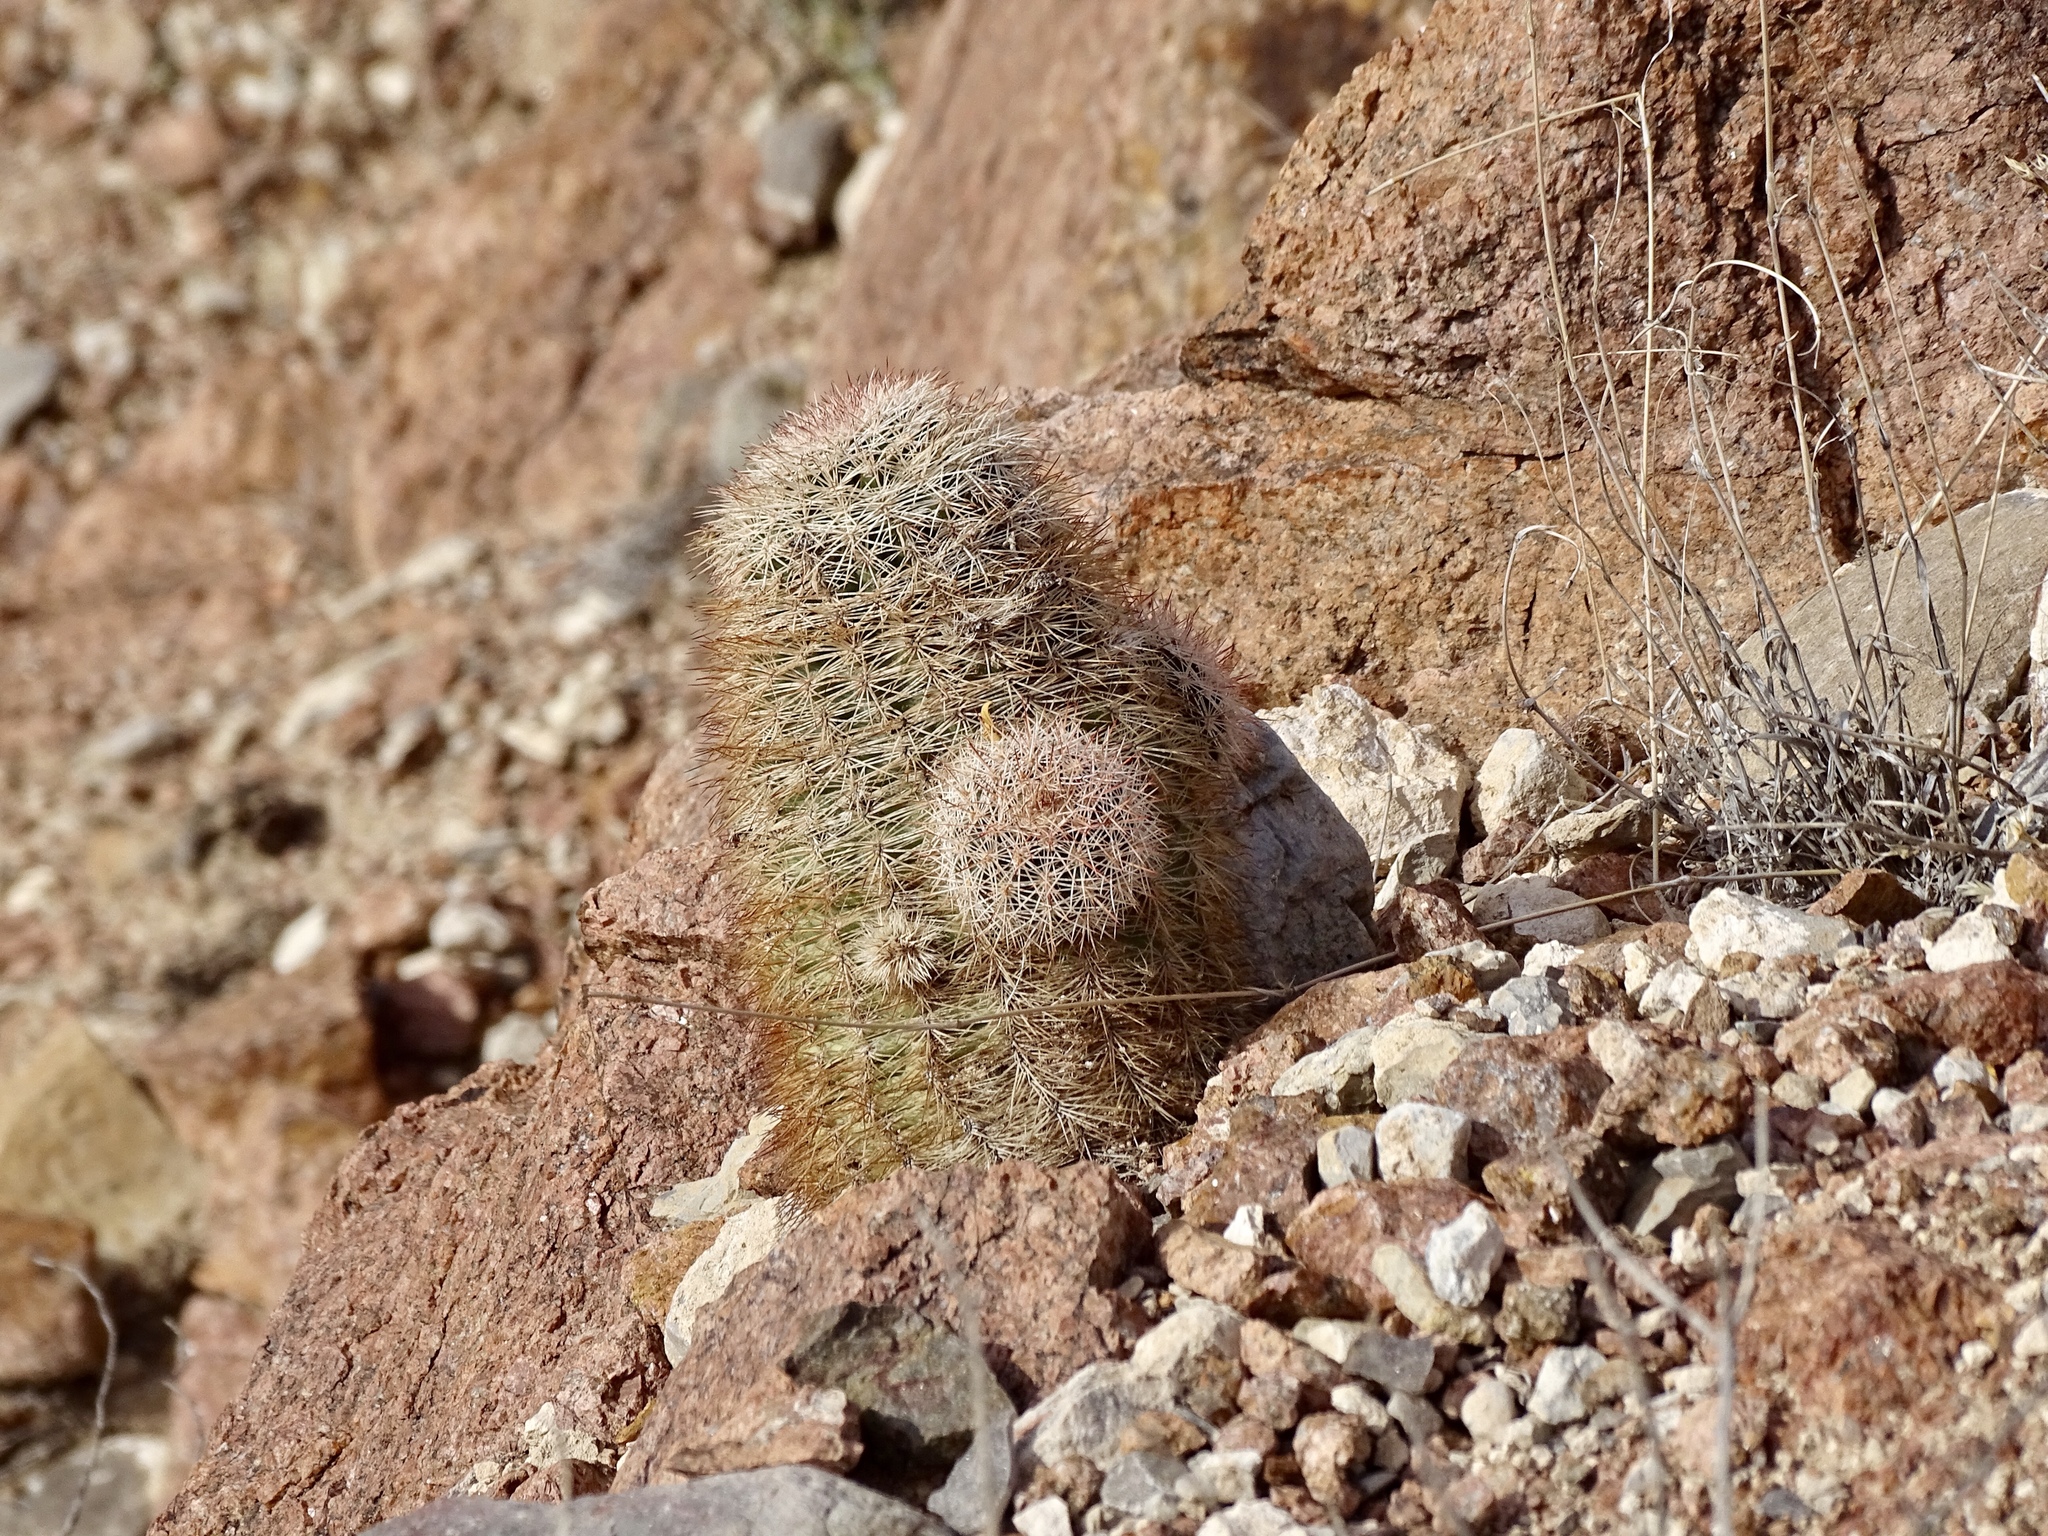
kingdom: Plantae
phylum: Tracheophyta
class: Magnoliopsida
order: Caryophyllales
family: Cactaceae
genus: Echinocereus
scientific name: Echinocereus dasyacanthus
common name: Spiny hedgehog cactus
